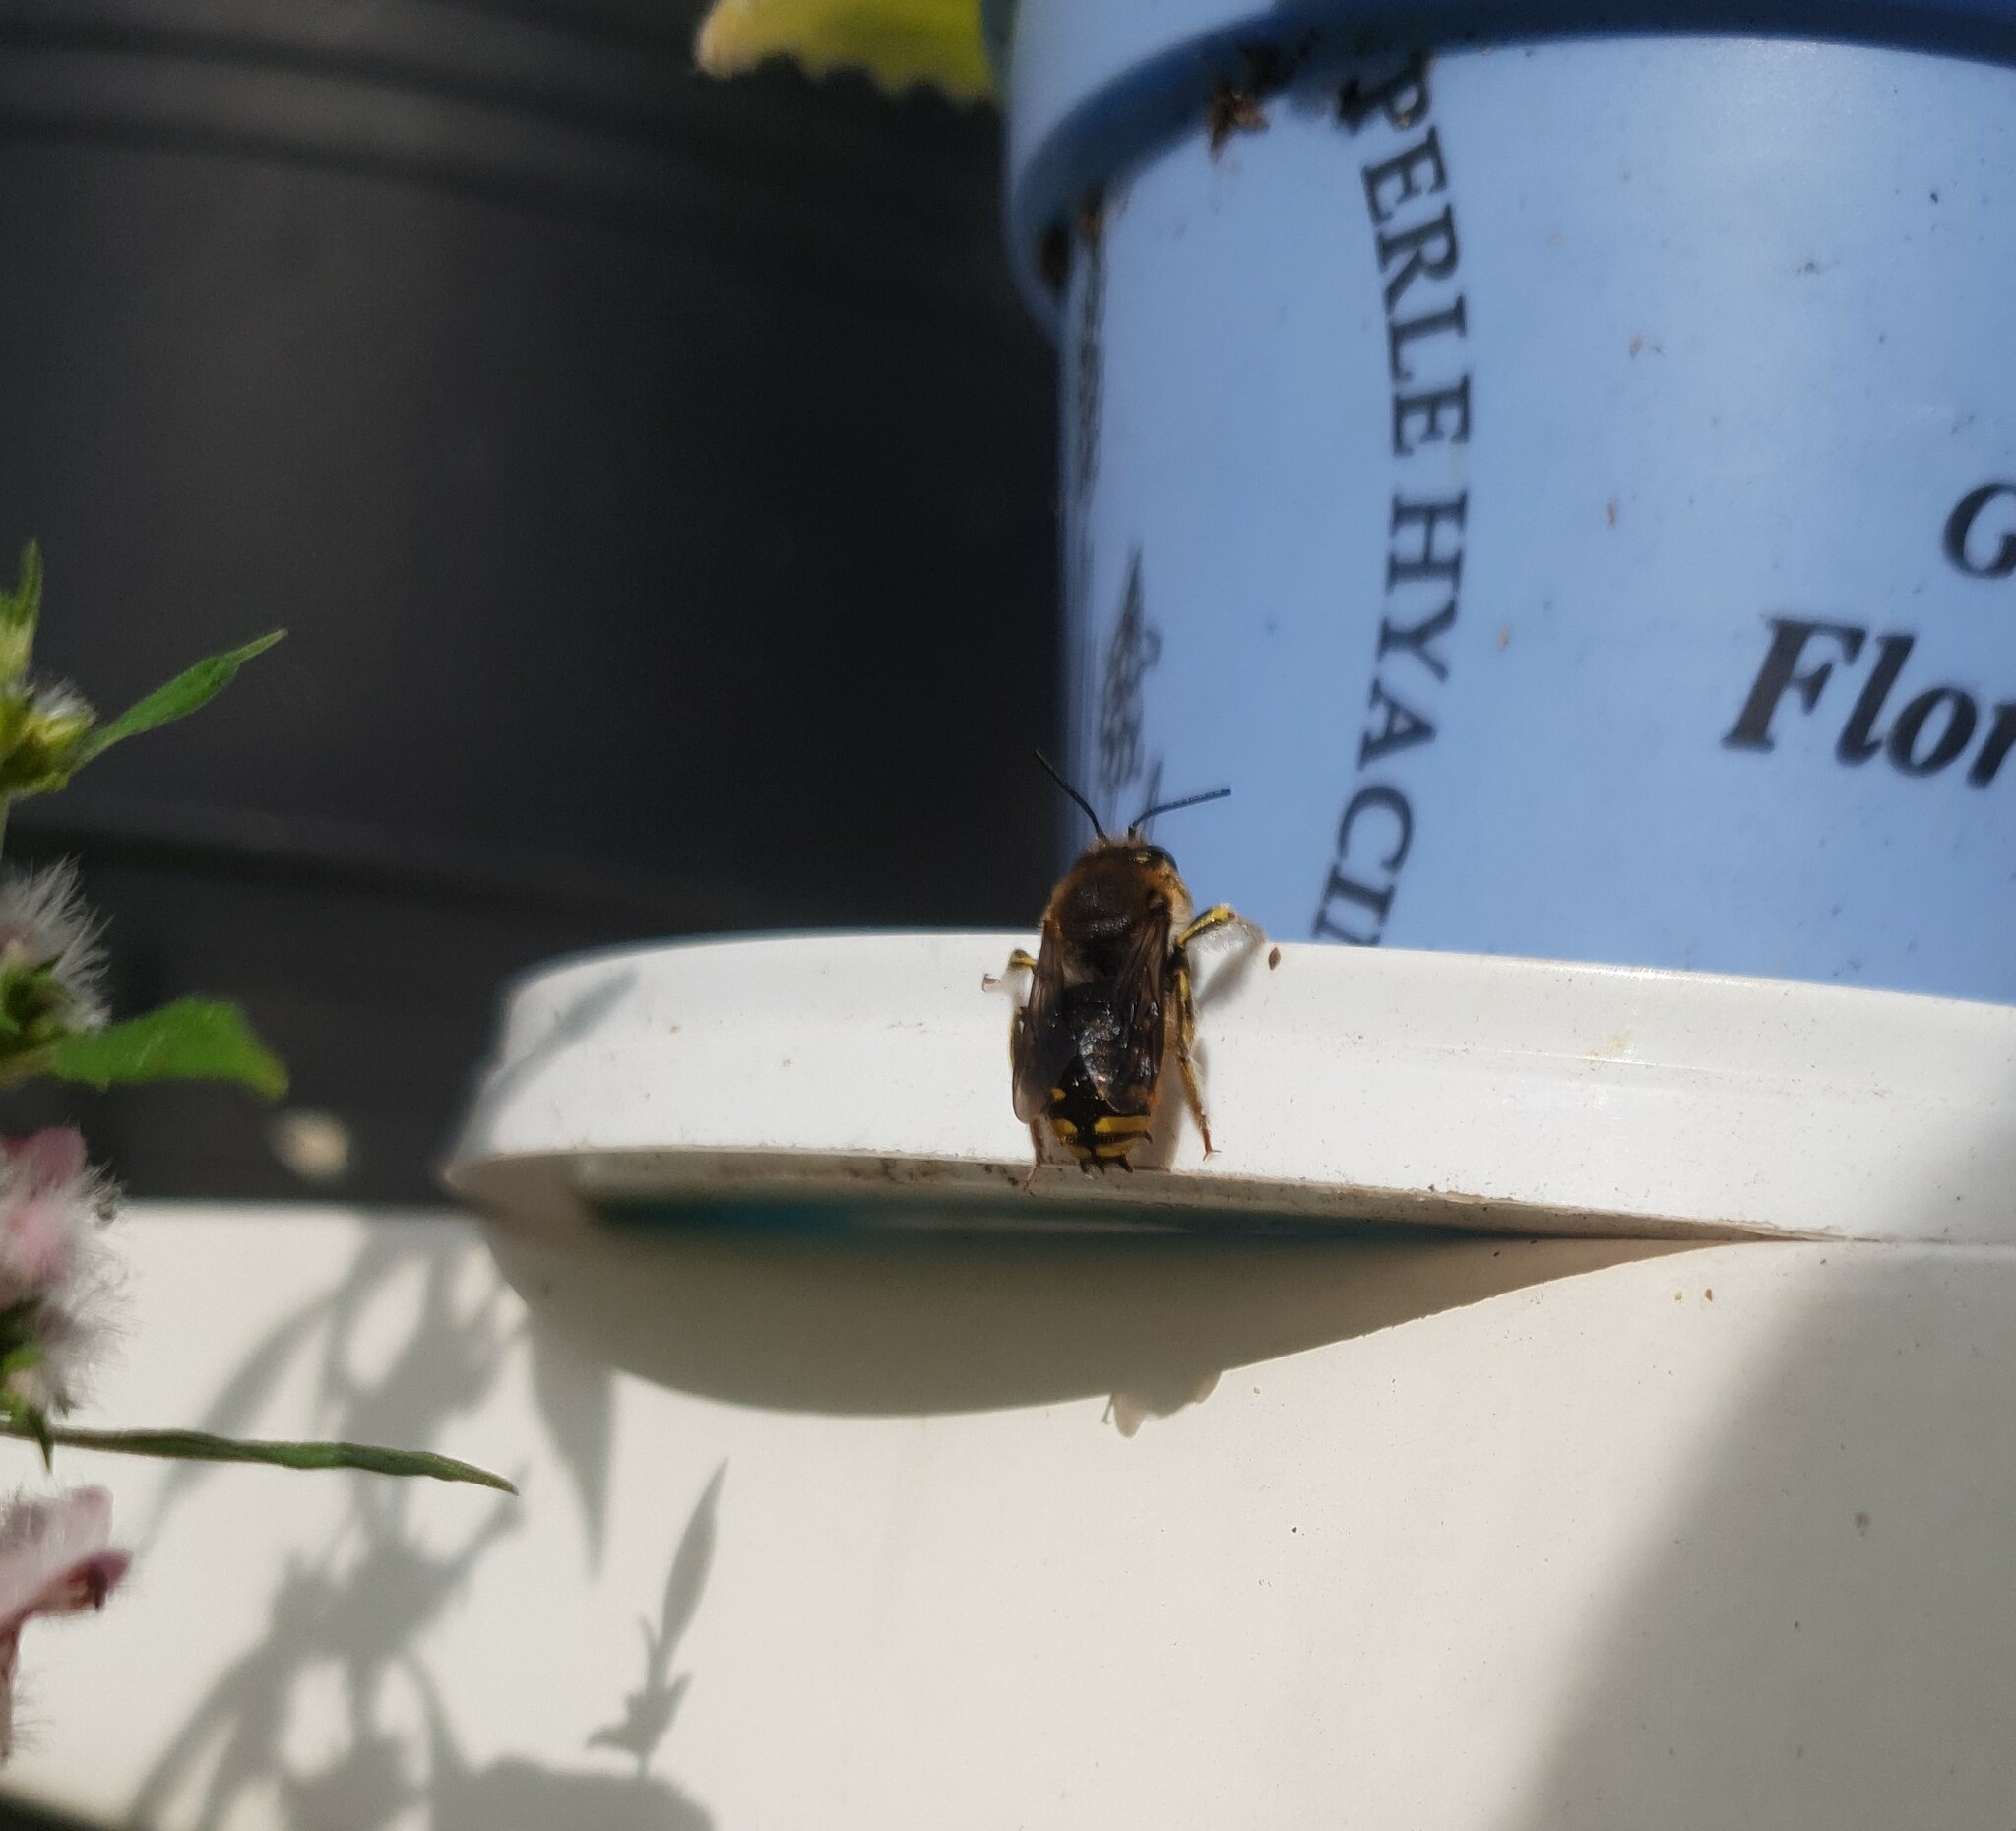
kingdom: Animalia
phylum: Arthropoda
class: Insecta
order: Hymenoptera
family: Megachilidae
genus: Anthidium
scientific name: Anthidium manicatum
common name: Wool carder bee
